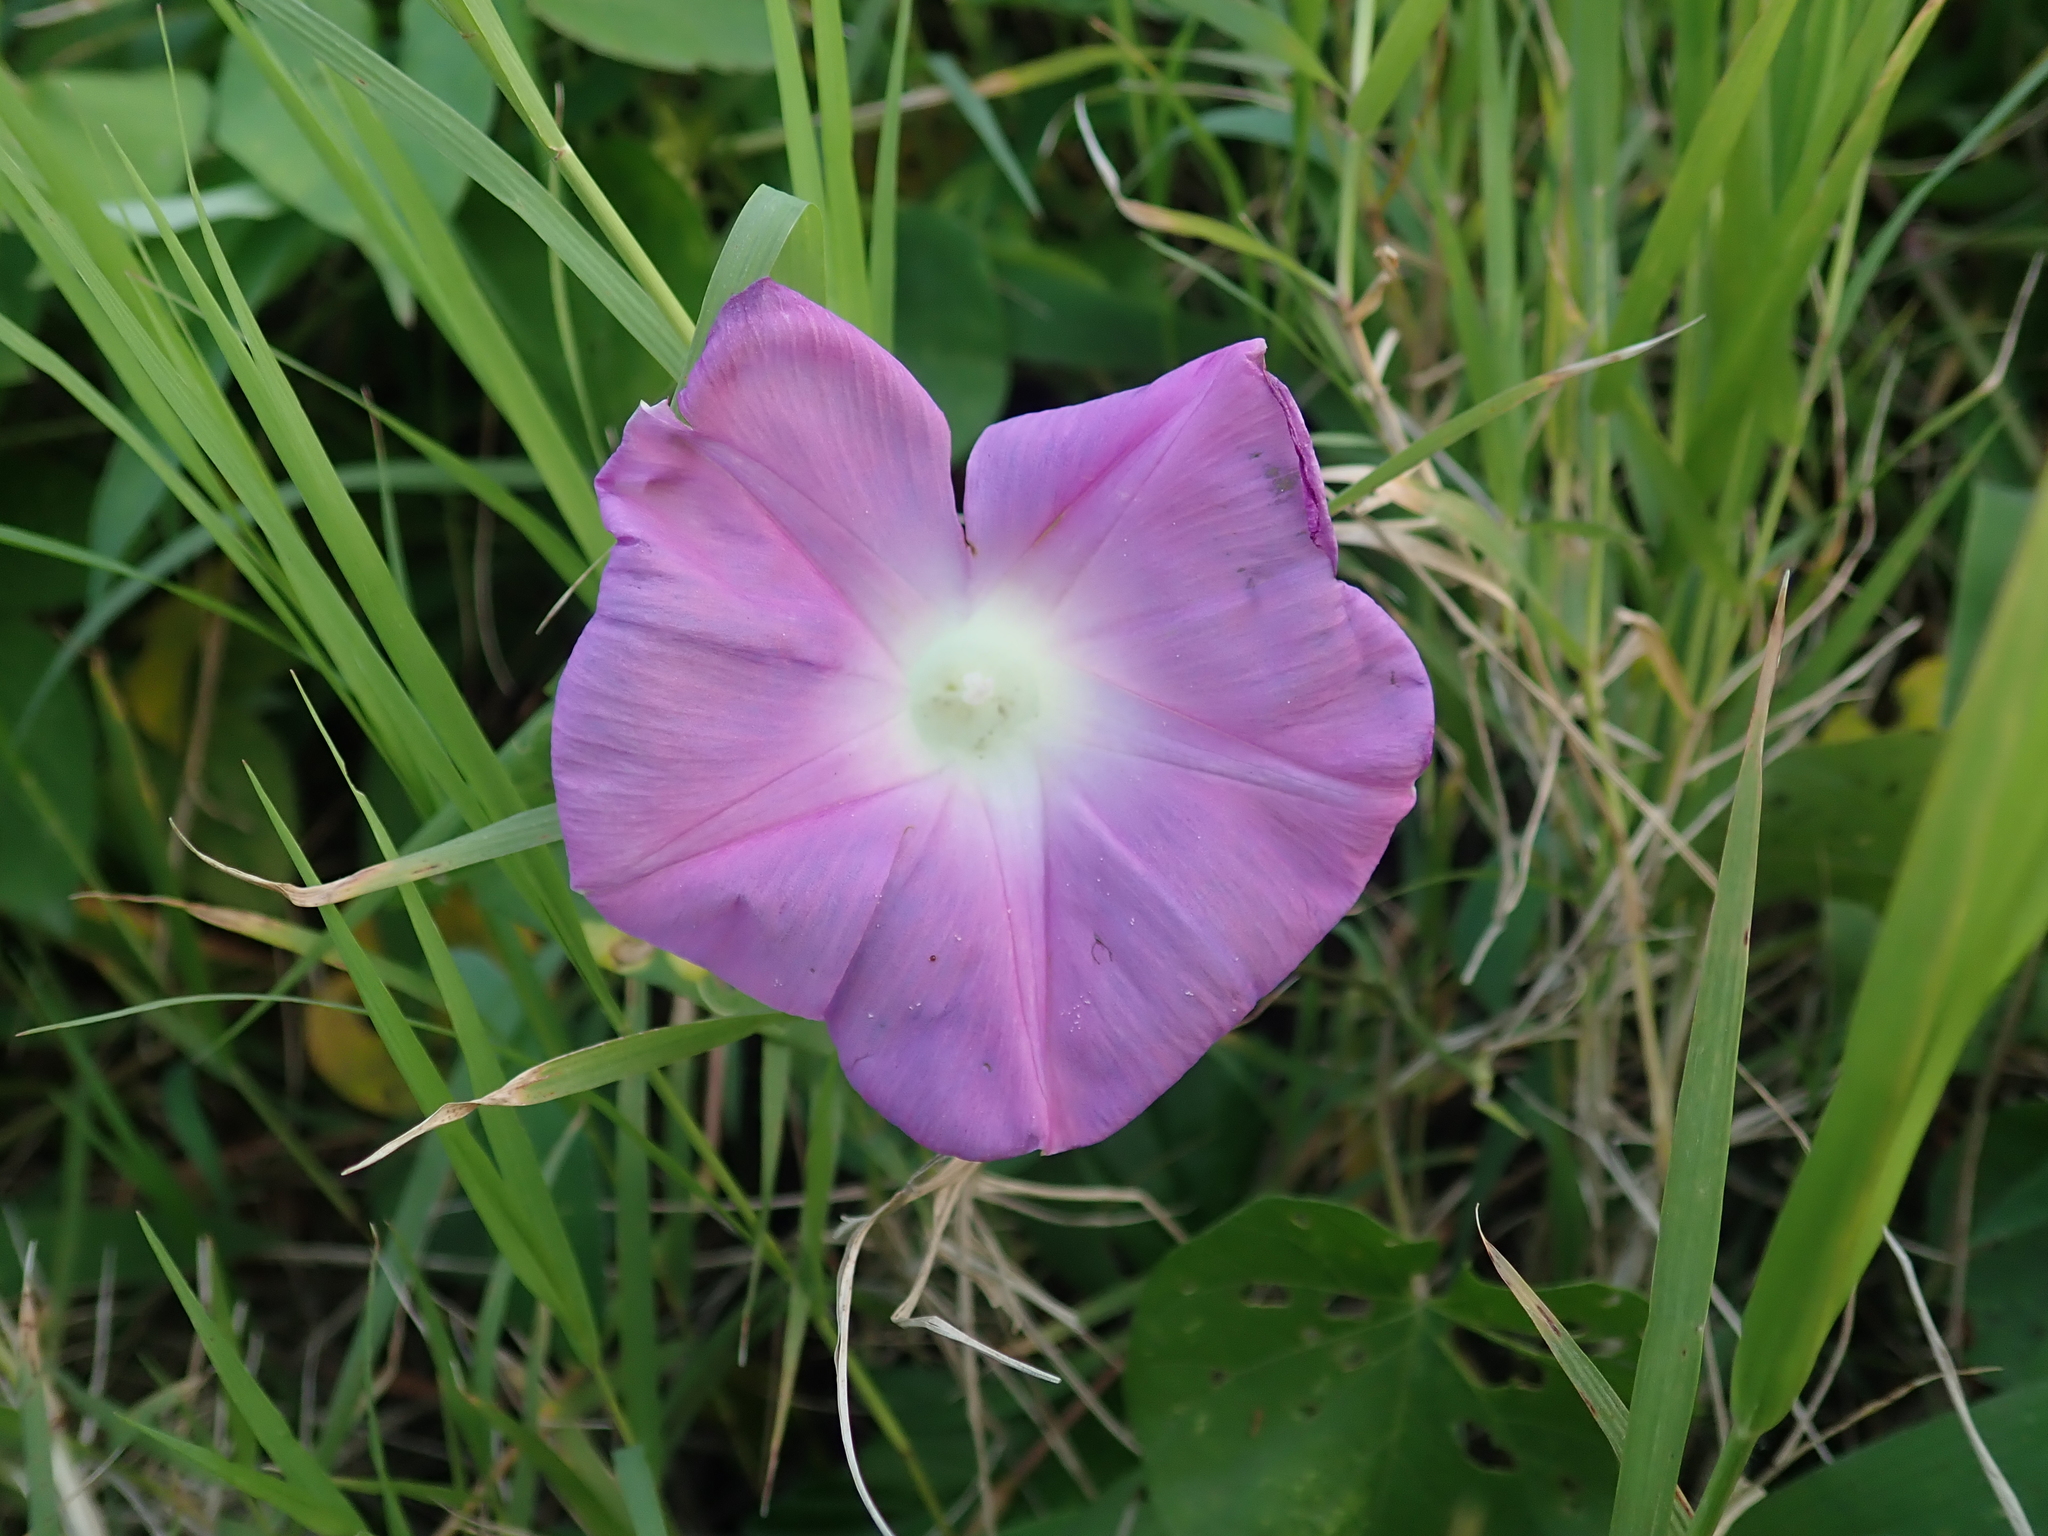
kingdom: Plantae
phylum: Tracheophyta
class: Magnoliopsida
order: Solanales
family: Convolvulaceae
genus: Ipomoea
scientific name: Ipomoea indica
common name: Blue dawnflower
